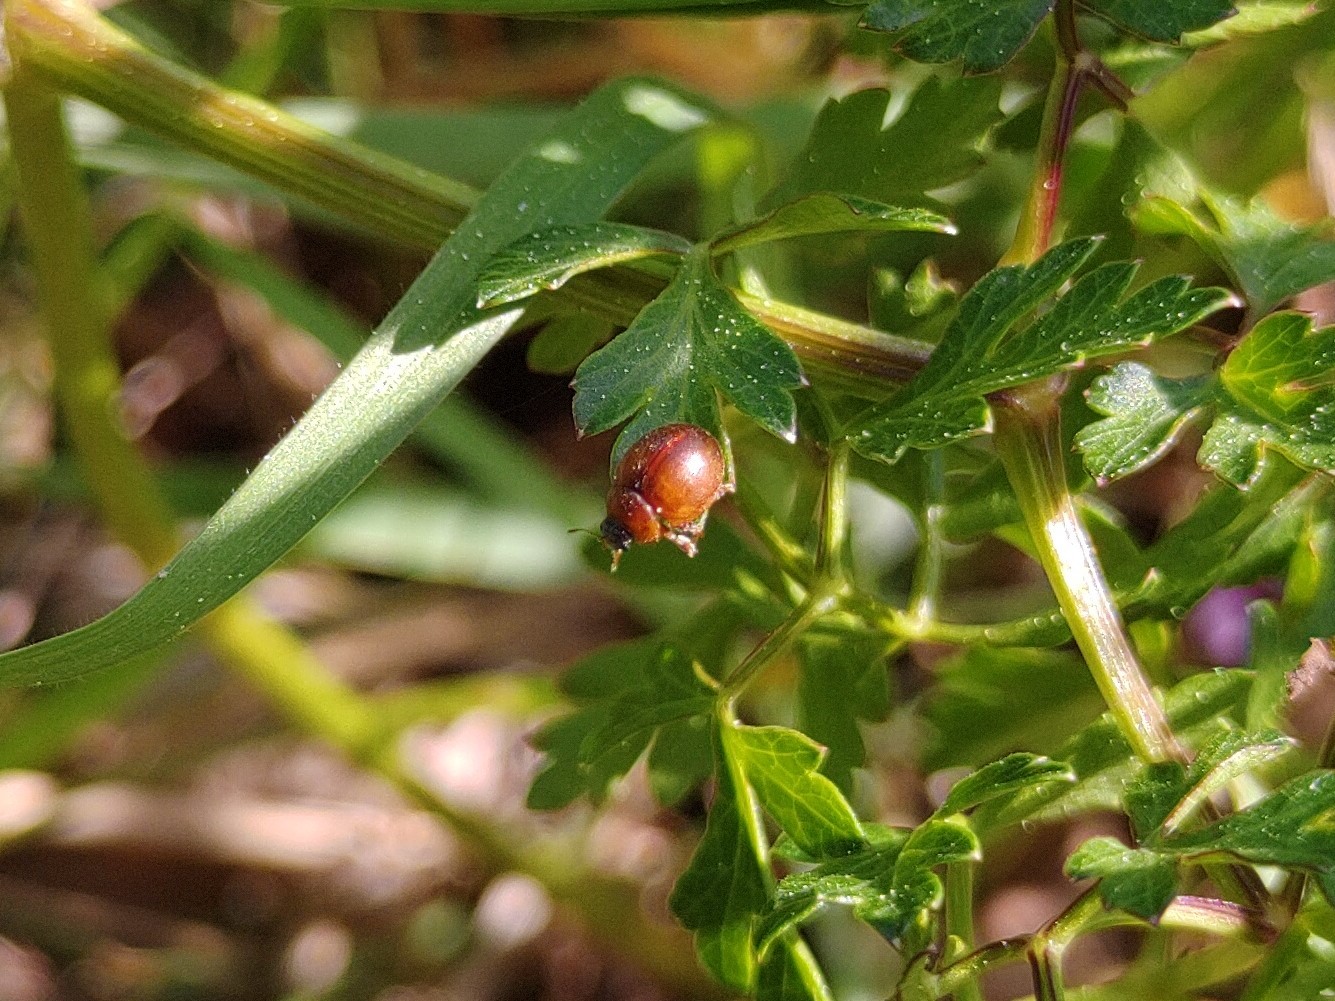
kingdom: Animalia
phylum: Arthropoda
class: Insecta
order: Coleoptera
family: Coccinellidae
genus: Cynegetis
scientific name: Cynegetis impunctata
